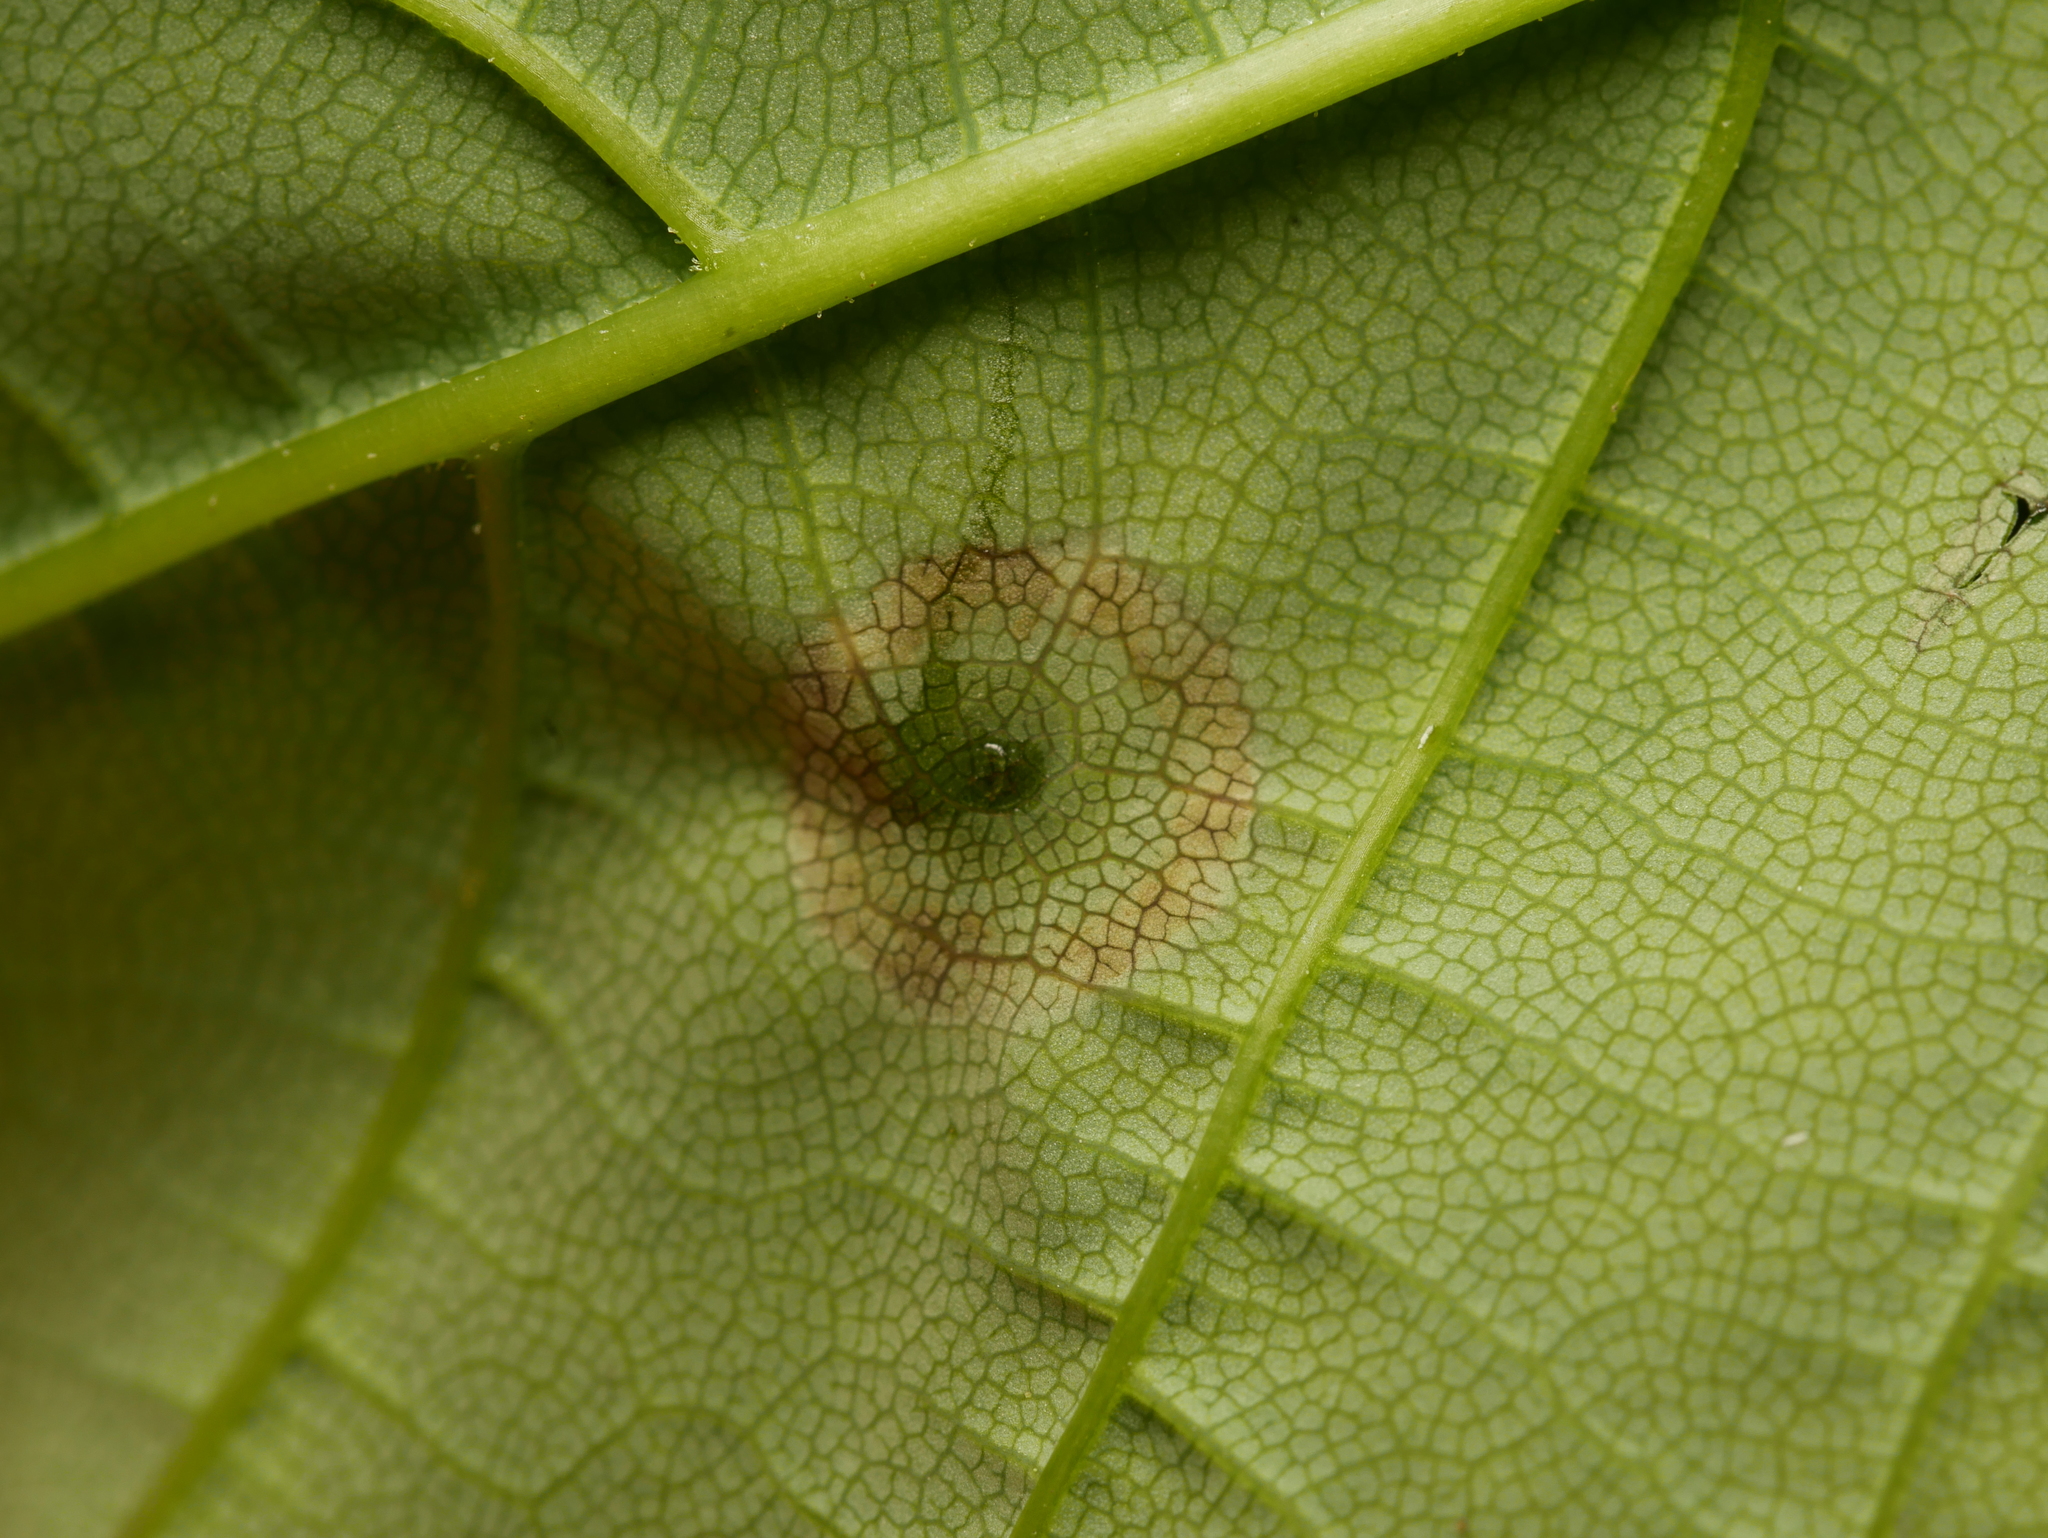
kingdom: Animalia
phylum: Arthropoda
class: Insecta
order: Diptera
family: Cecidomyiidae
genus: Drisina
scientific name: Drisina glutinosa
